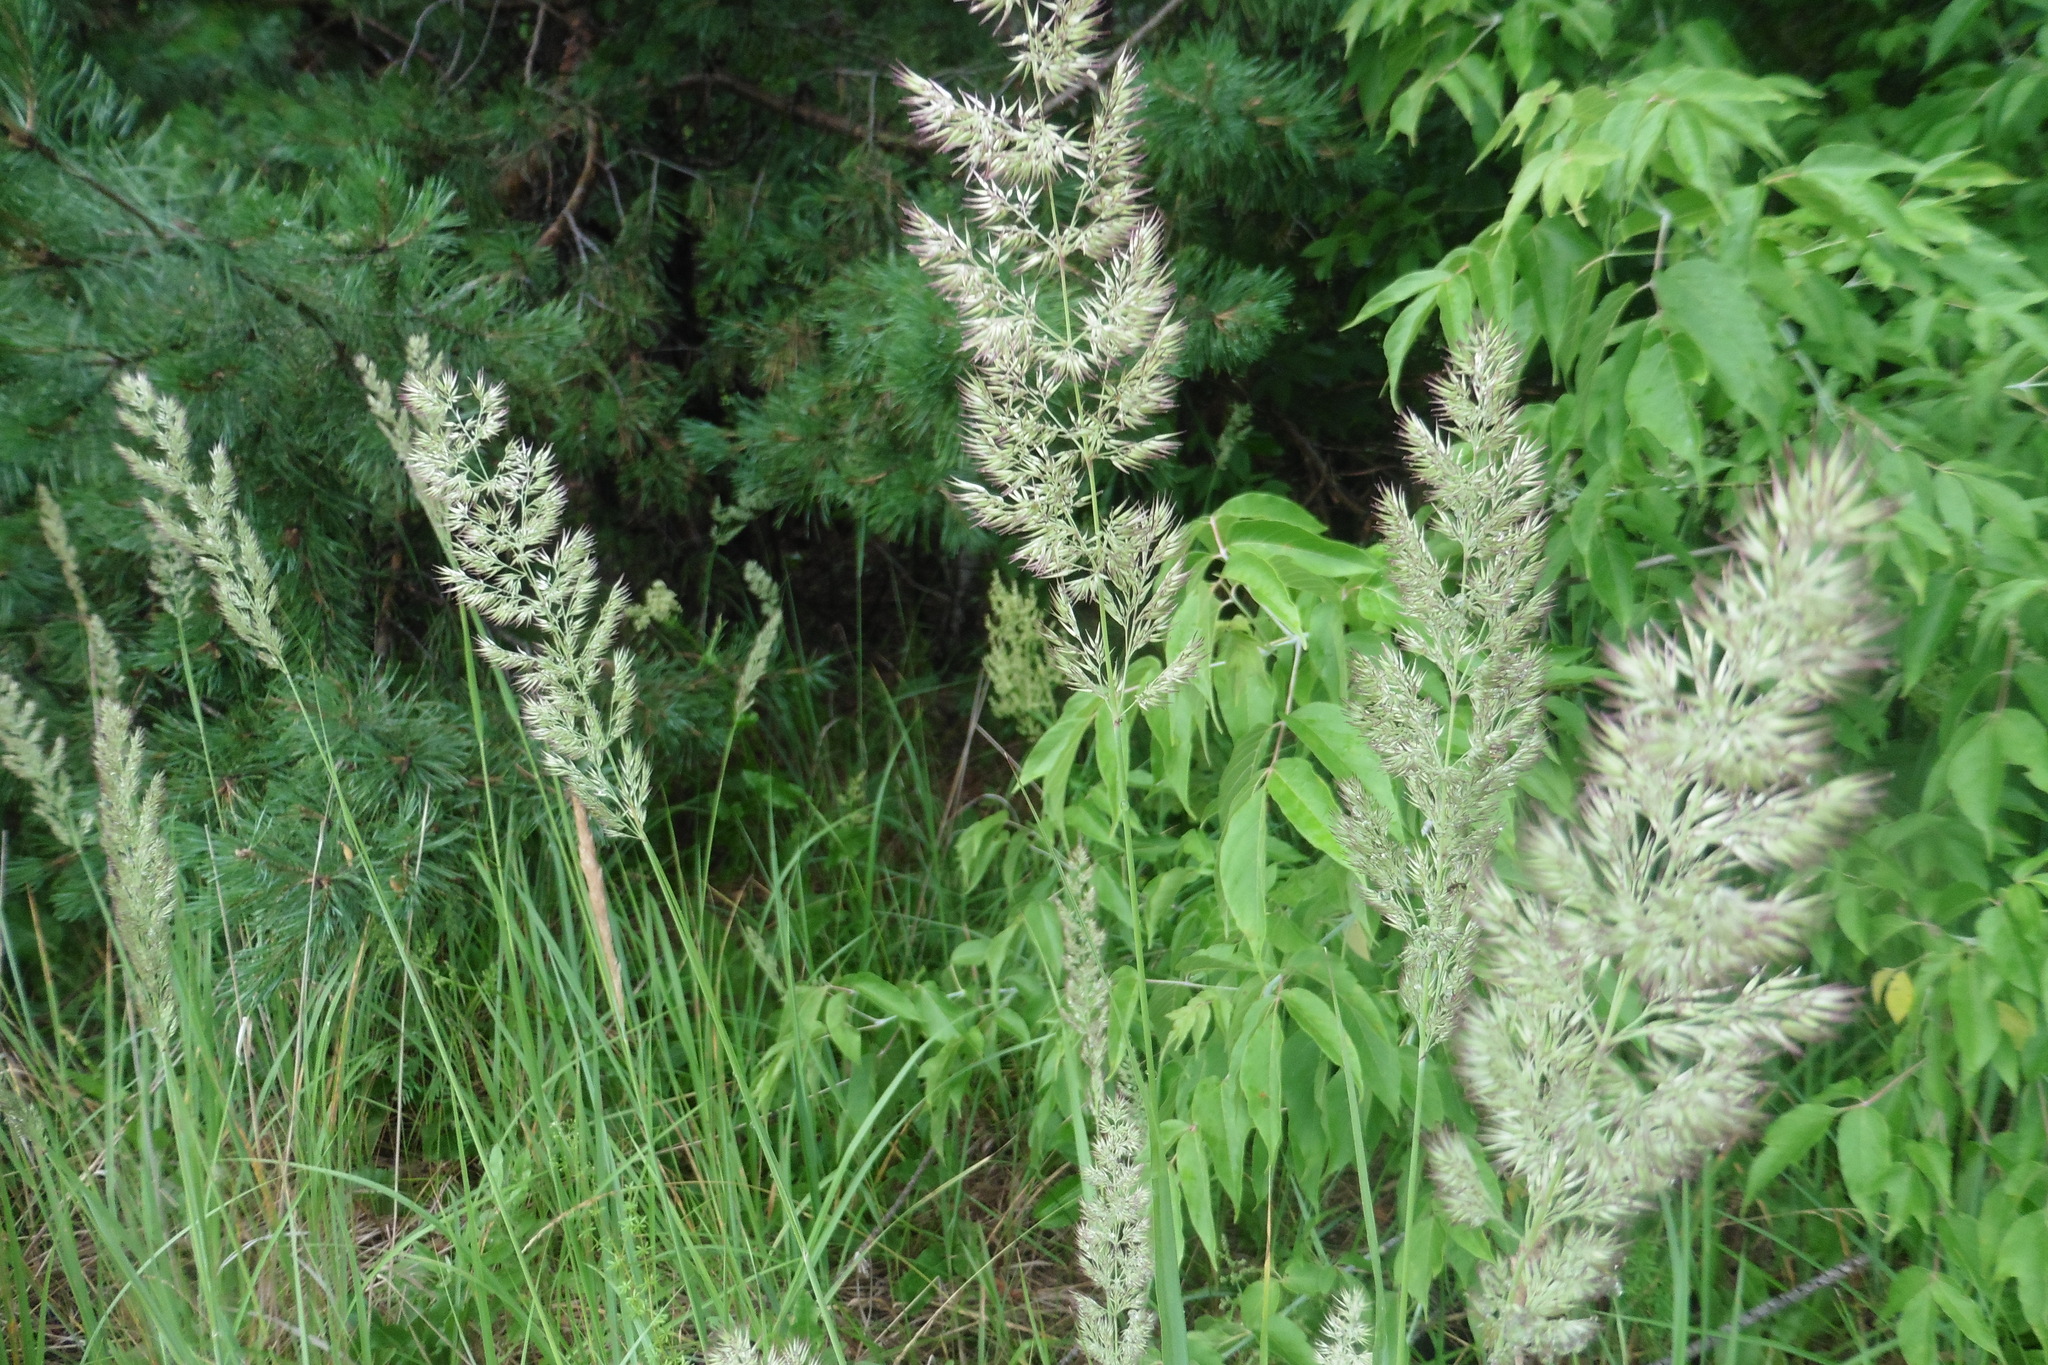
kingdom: Plantae
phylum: Tracheophyta
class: Liliopsida
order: Poales
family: Poaceae
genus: Calamagrostis
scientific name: Calamagrostis epigejos
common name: Wood small-reed
